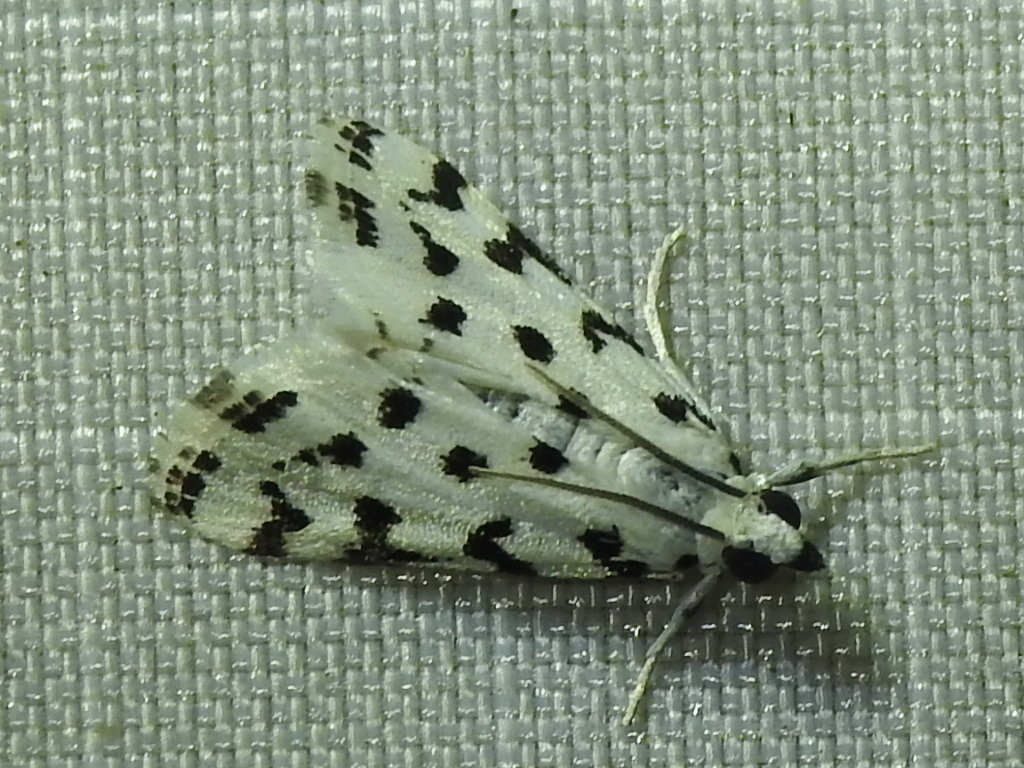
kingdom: Animalia
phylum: Arthropoda
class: Insecta
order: Lepidoptera
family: Crambidae
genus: Eustixia
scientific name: Eustixia pupula
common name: American cabbage pearl
